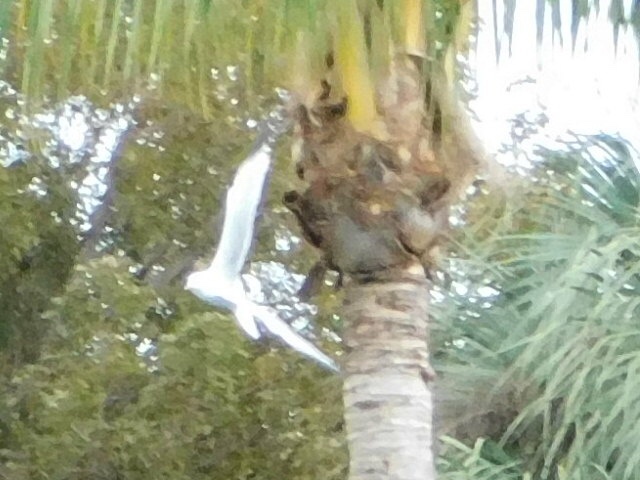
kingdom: Animalia
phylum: Chordata
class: Aves
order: Charadriiformes
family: Laridae
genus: Larus
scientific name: Larus delawarensis
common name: Ring-billed gull
